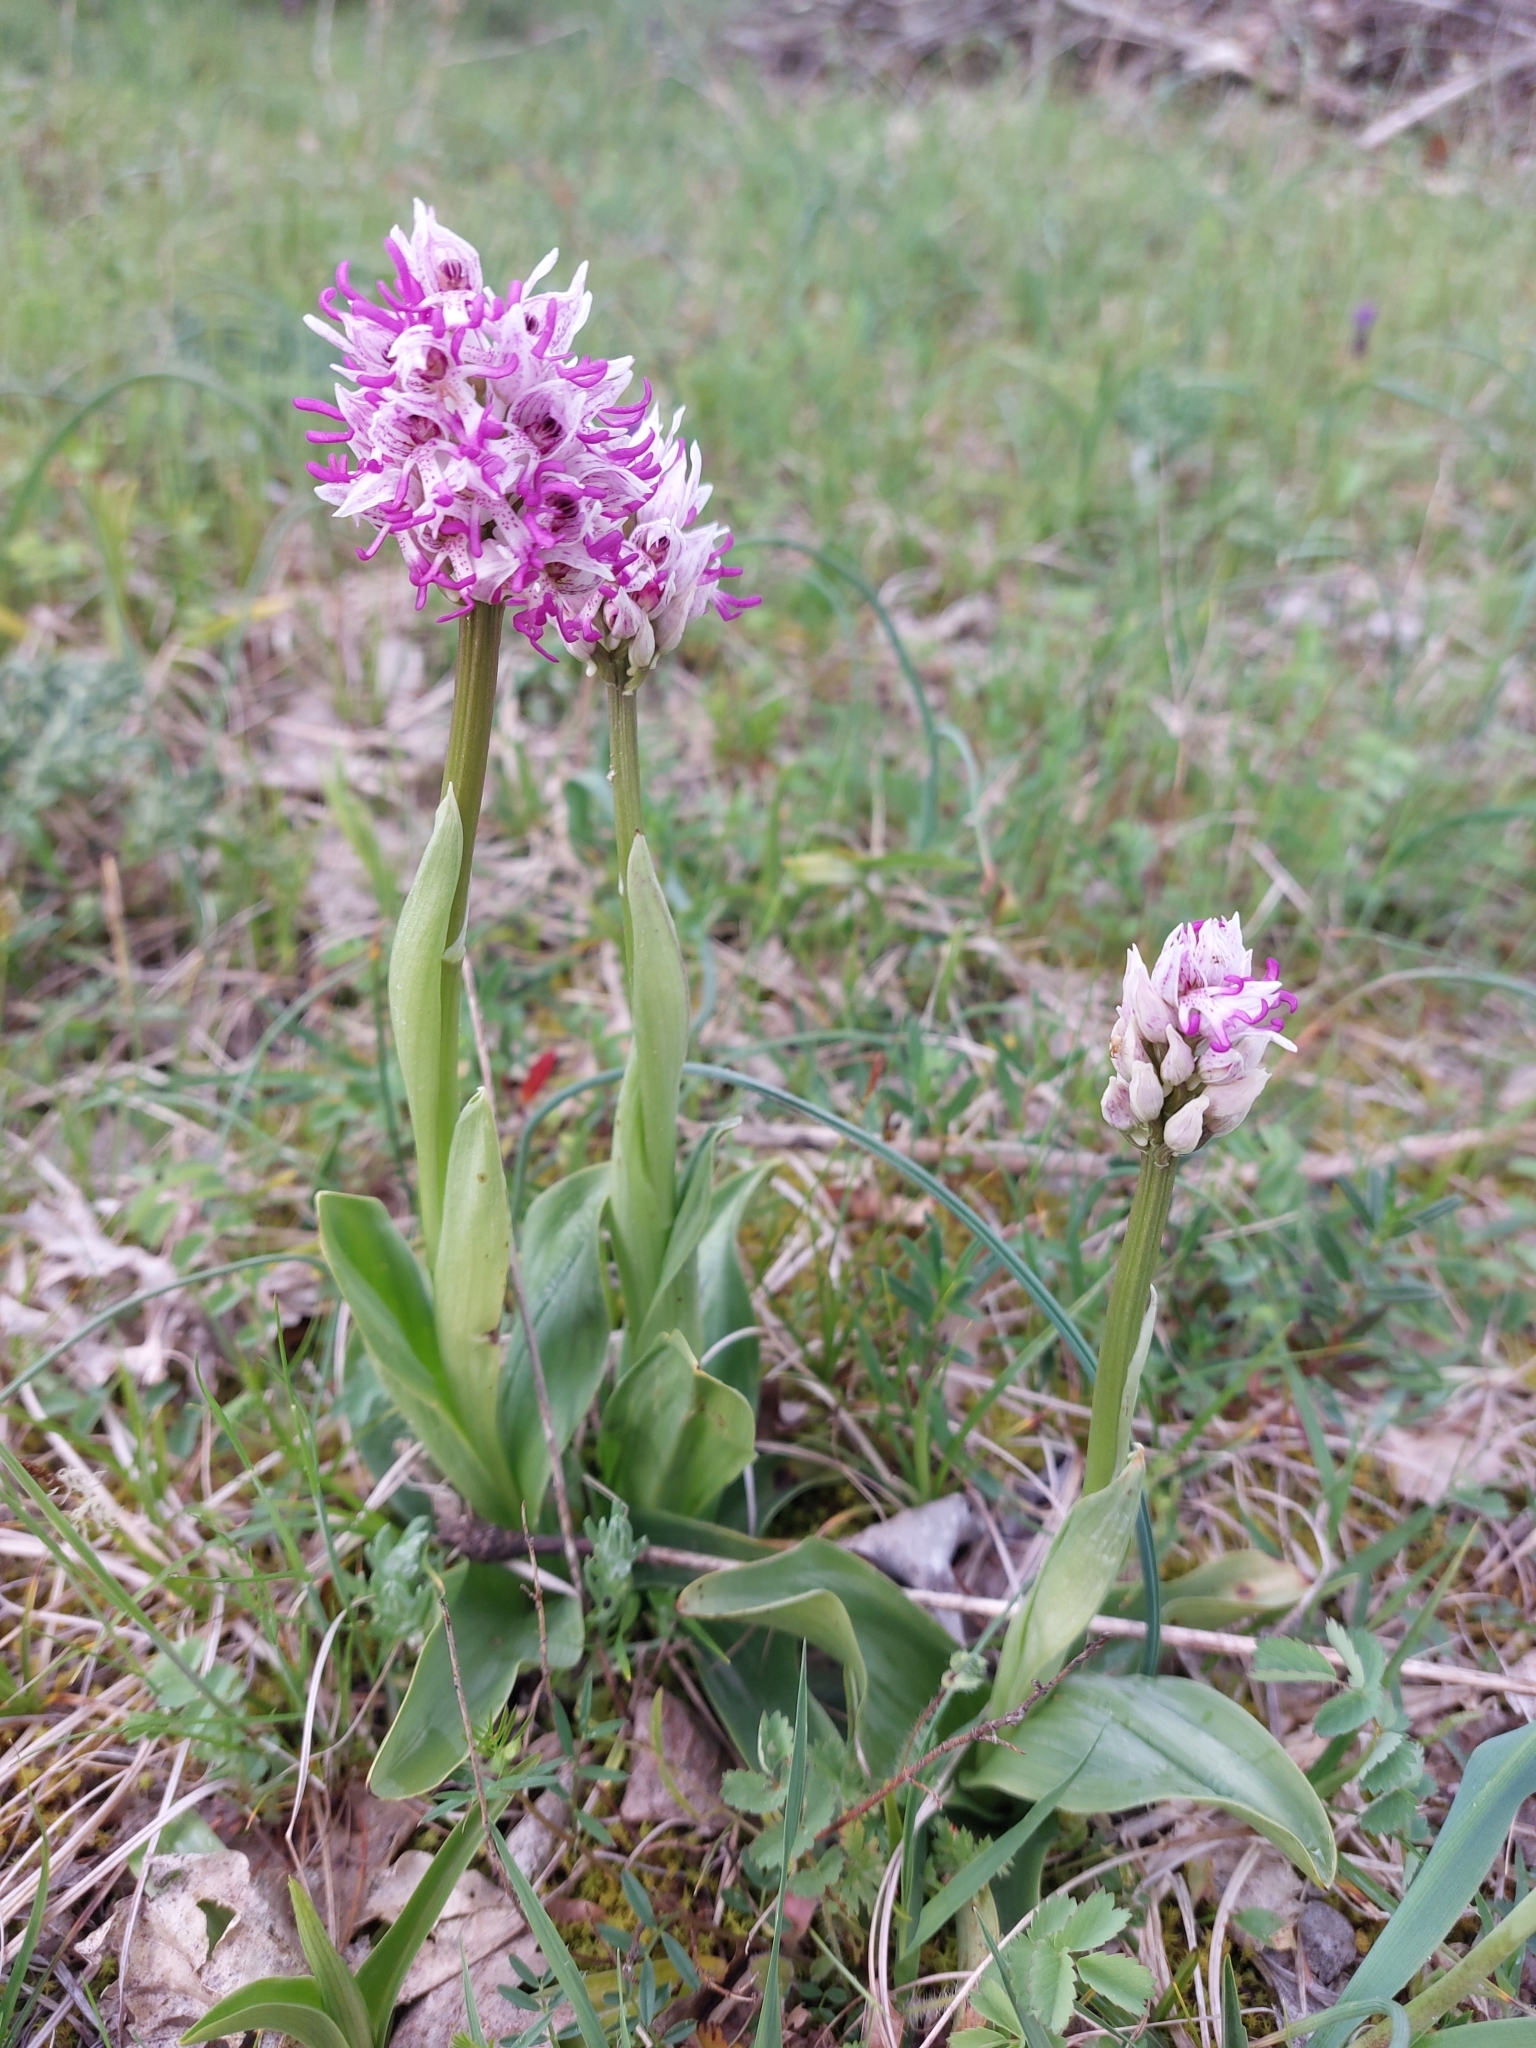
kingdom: Plantae
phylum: Tracheophyta
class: Liliopsida
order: Asparagales
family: Orchidaceae
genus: Orchis
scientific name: Orchis simia
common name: Monkey orchid
